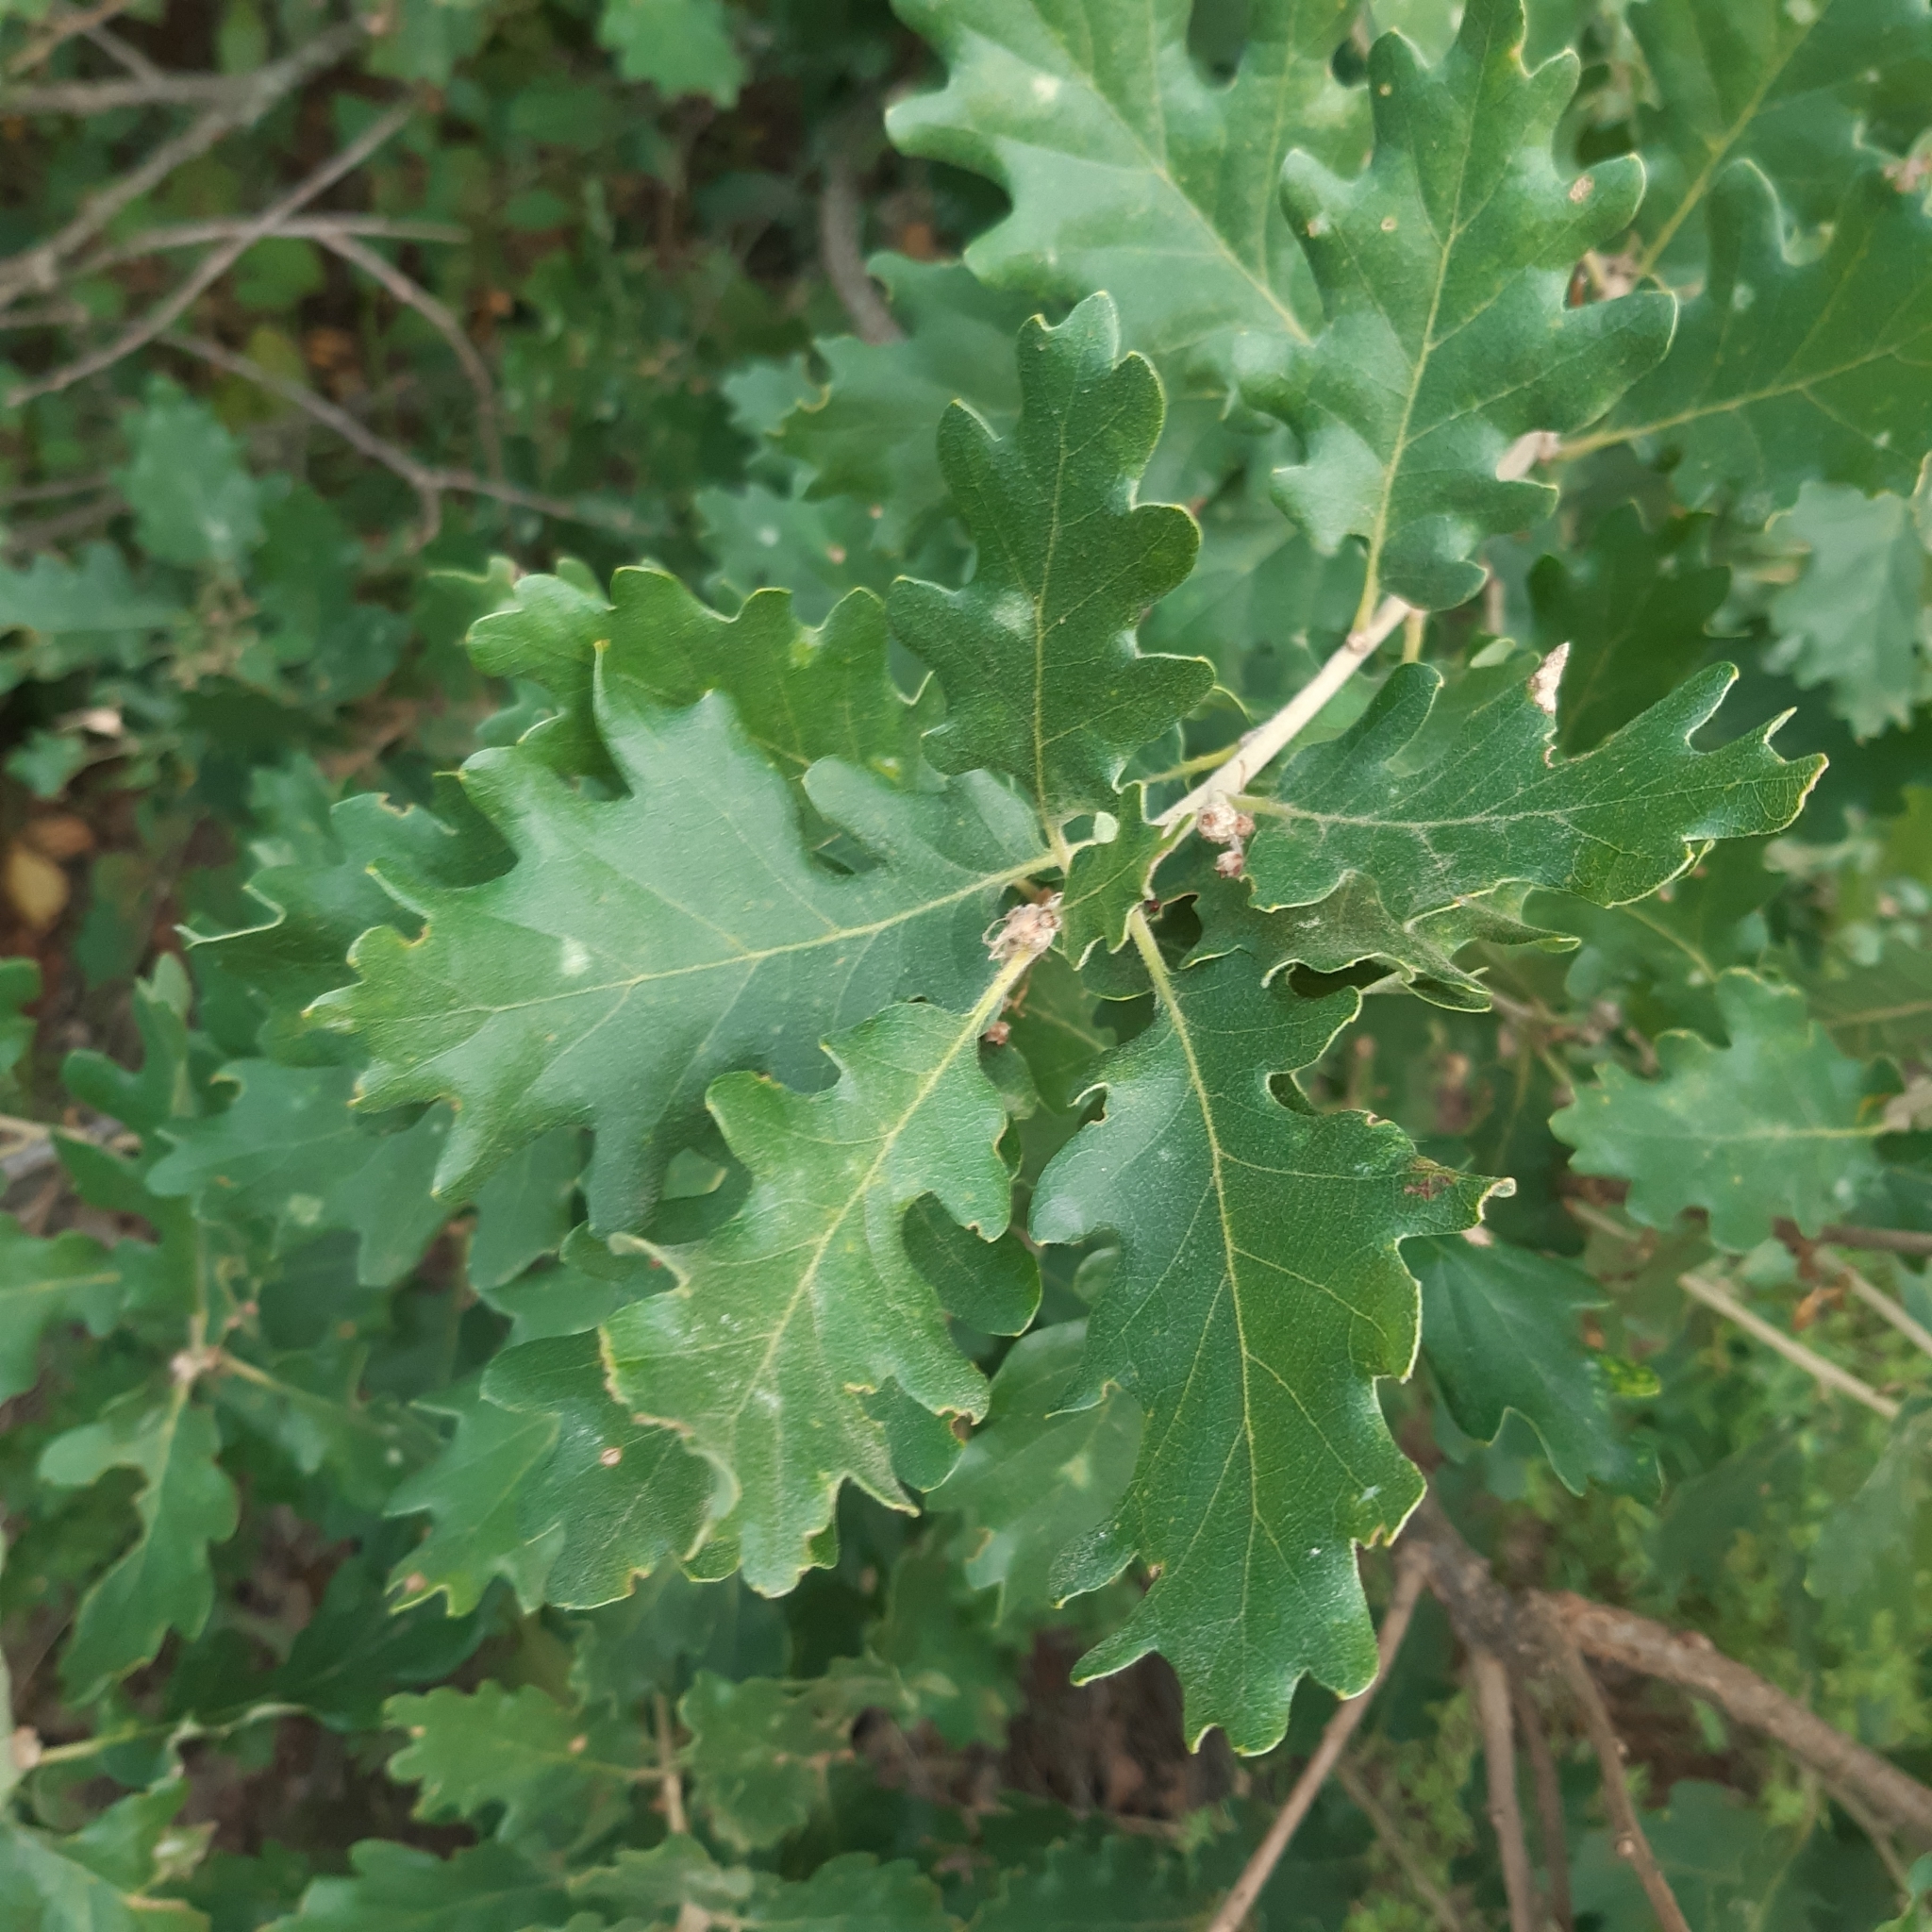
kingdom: Plantae
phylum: Tracheophyta
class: Magnoliopsida
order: Fagales
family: Fagaceae
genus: Quercus
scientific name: Quercus pubescens
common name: Downy oak
